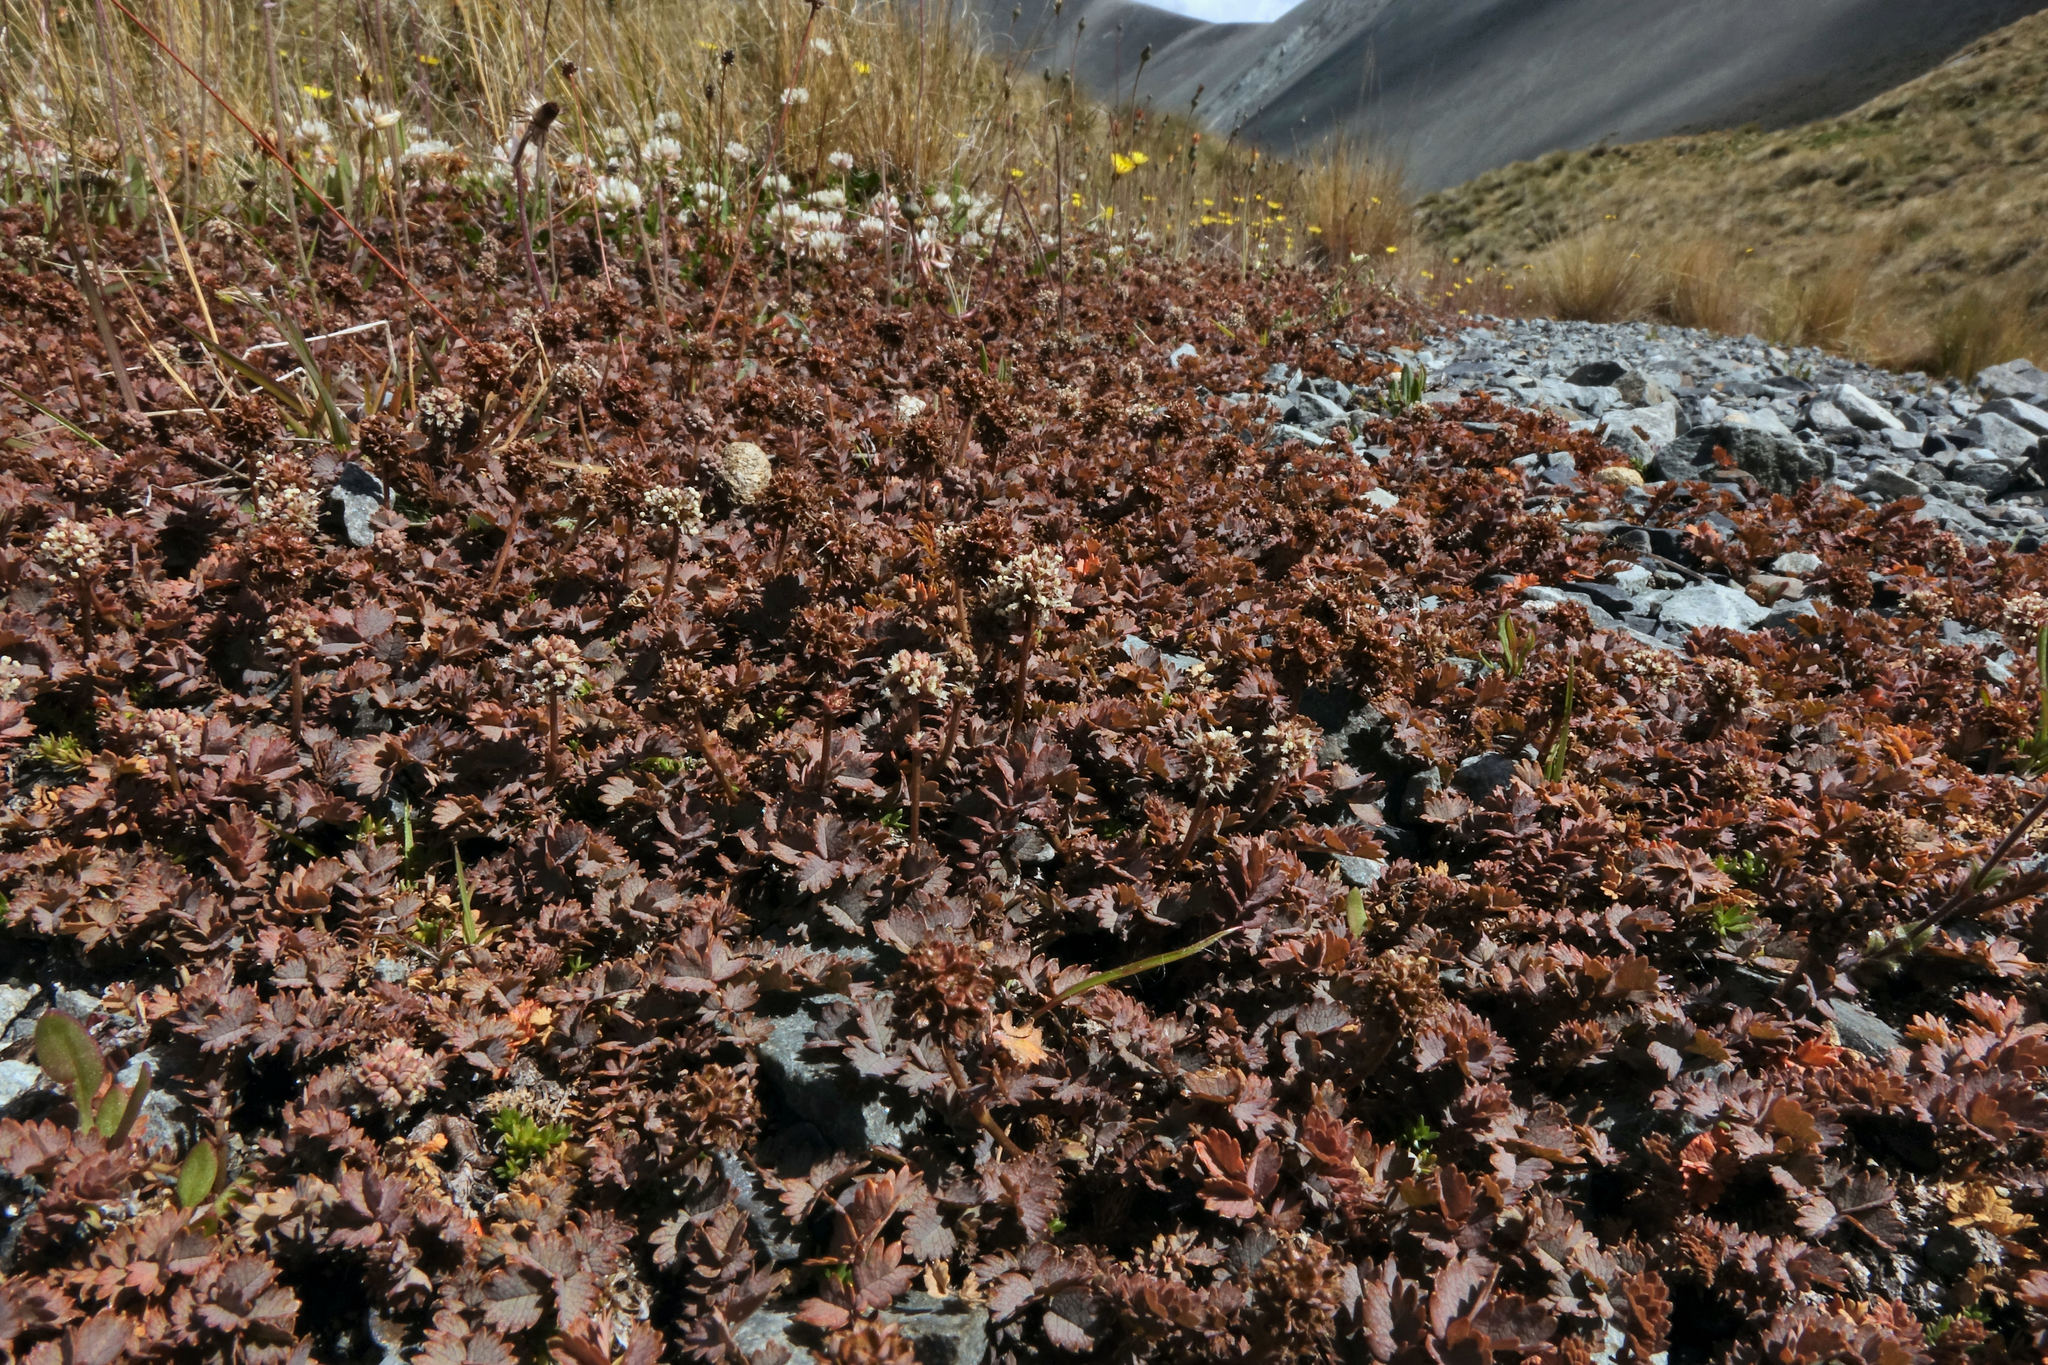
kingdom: Plantae
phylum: Tracheophyta
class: Magnoliopsida
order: Rosales
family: Rosaceae
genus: Acaena
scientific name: Acaena inermis
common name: Spineless acaena
